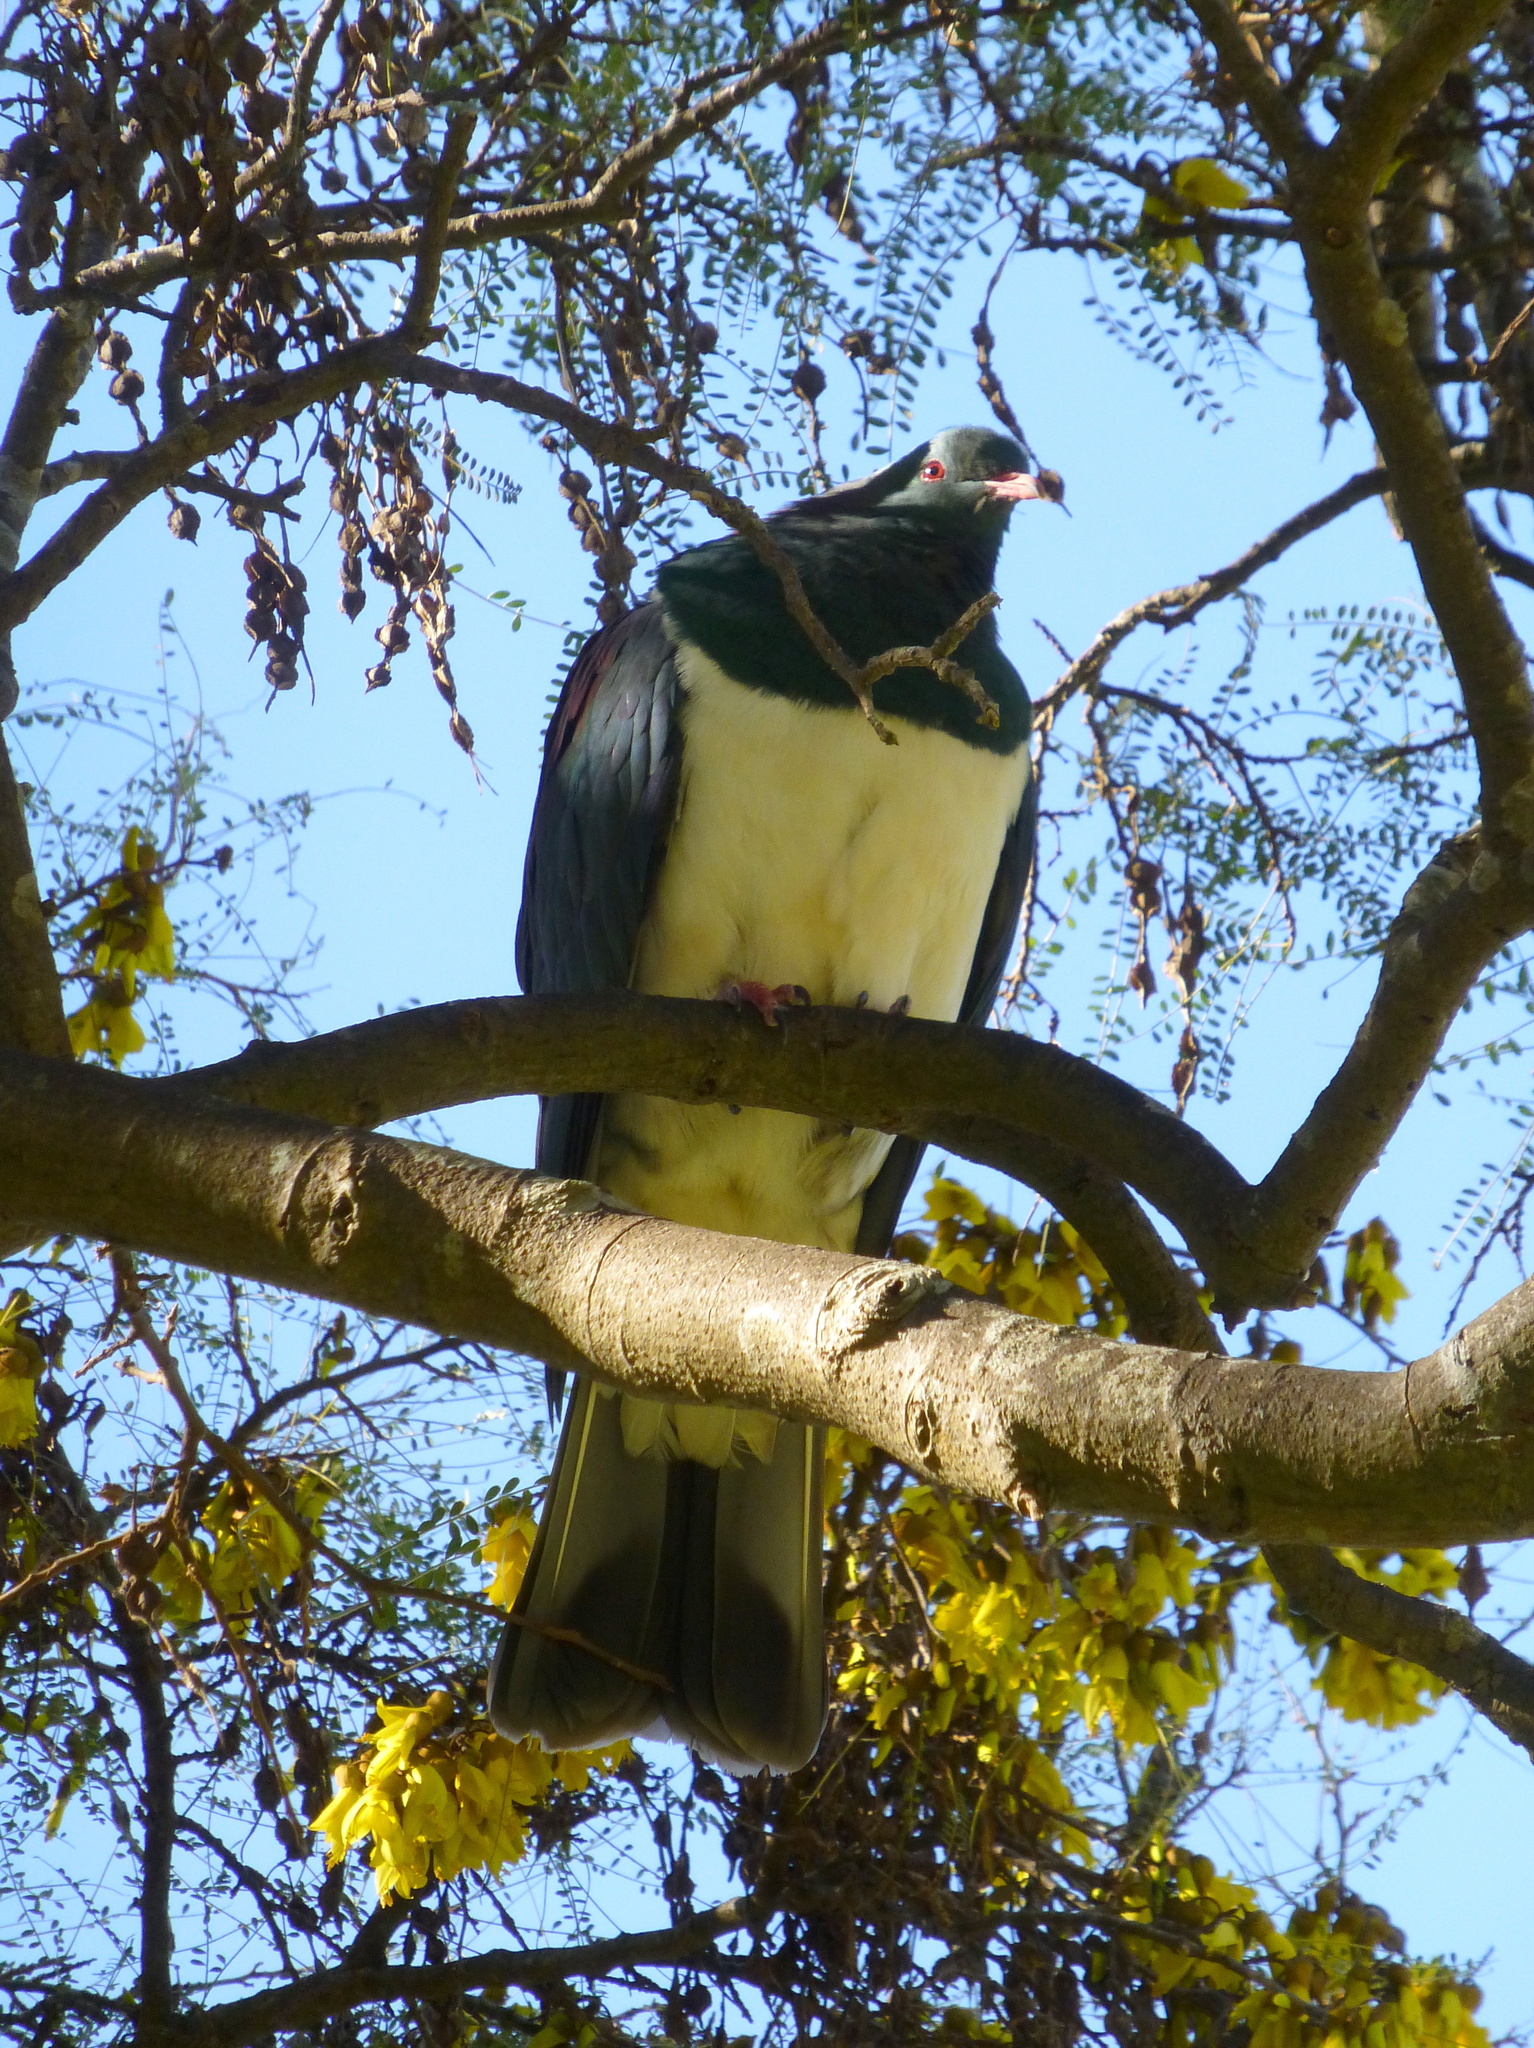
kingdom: Animalia
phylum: Chordata
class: Aves
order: Columbiformes
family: Columbidae
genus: Hemiphaga
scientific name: Hemiphaga novaeseelandiae
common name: New zealand pigeon
